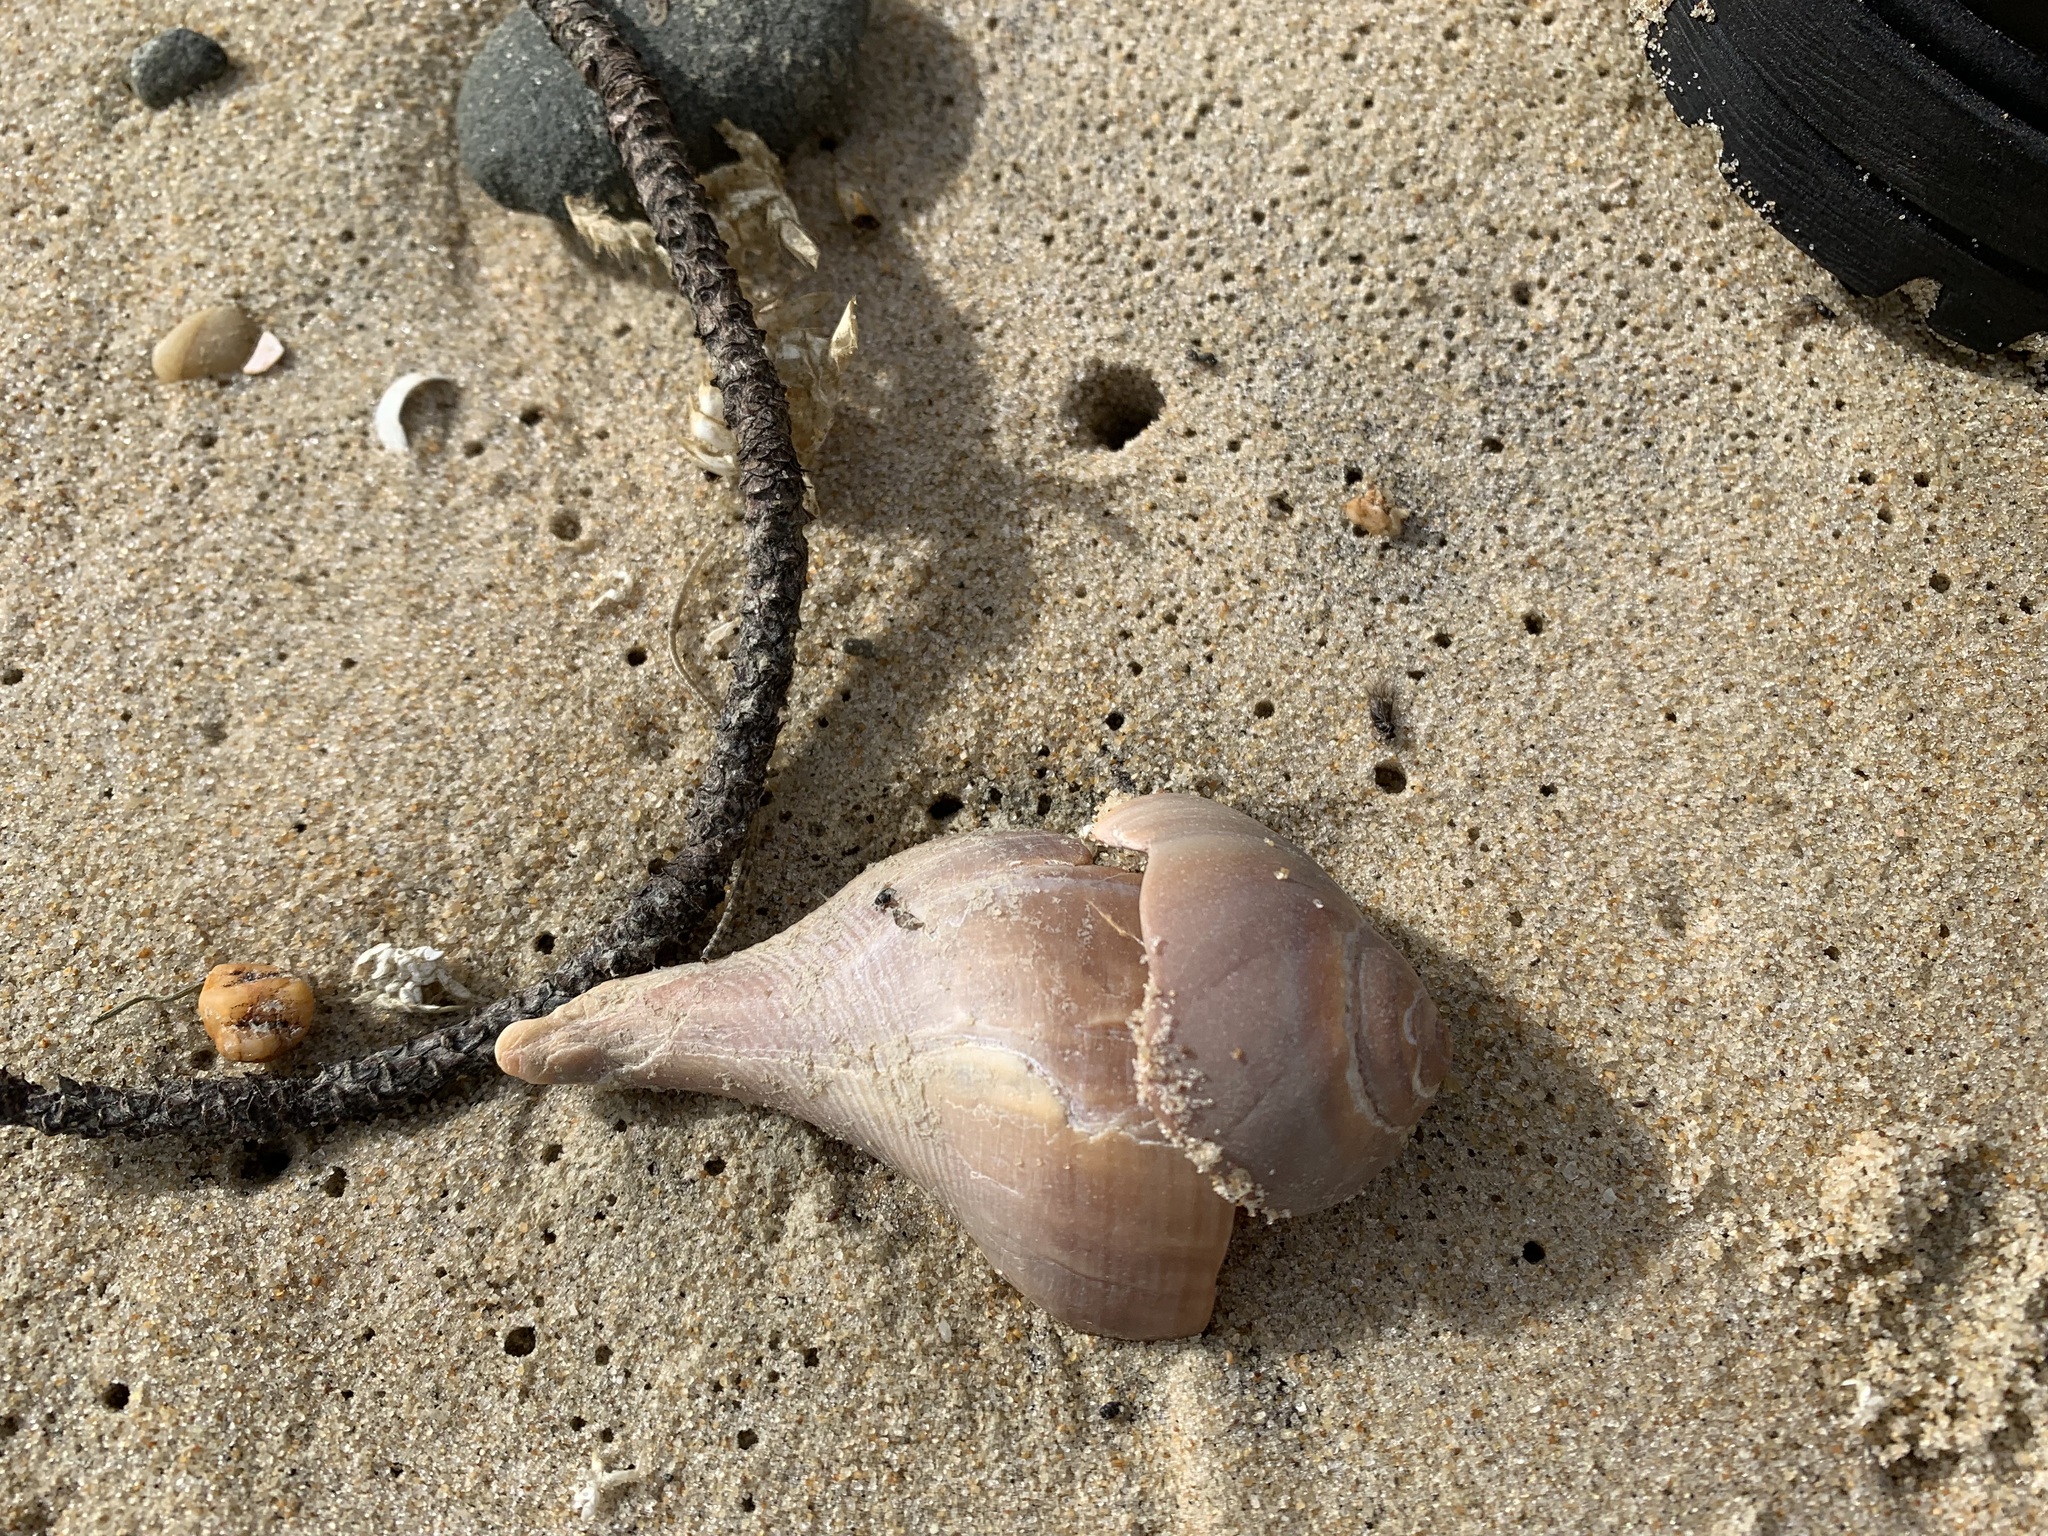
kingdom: Animalia
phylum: Mollusca
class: Gastropoda
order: Neogastropoda
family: Busyconidae
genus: Busycotypus
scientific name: Busycotypus canaliculatus
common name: Channeled whelk
